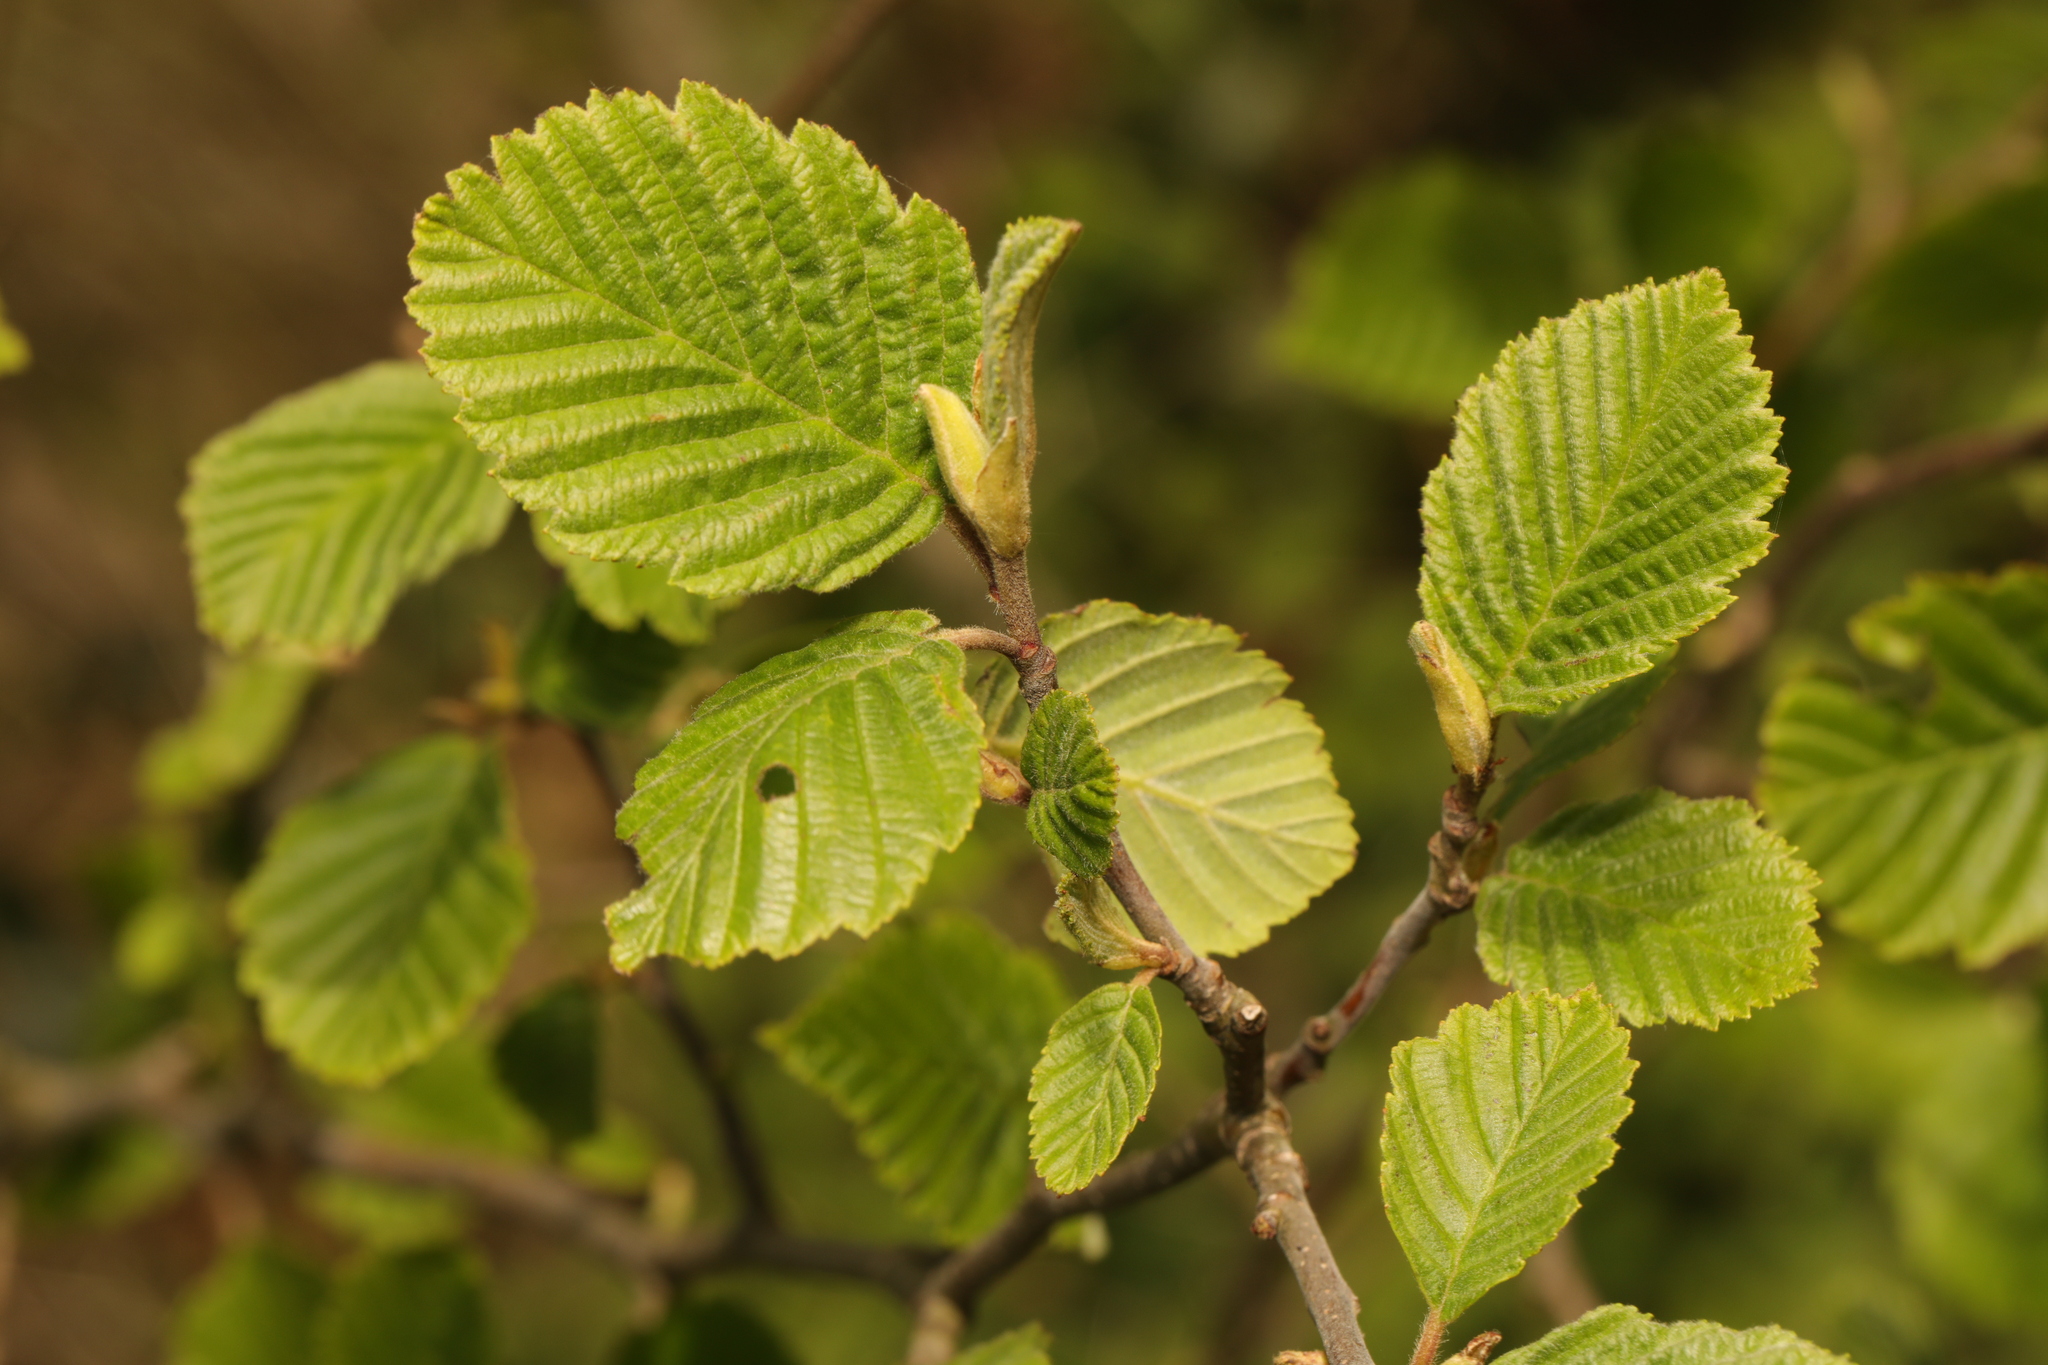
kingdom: Plantae
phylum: Tracheophyta
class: Magnoliopsida
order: Fagales
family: Betulaceae
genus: Alnus
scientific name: Alnus incana
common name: Grey alder
